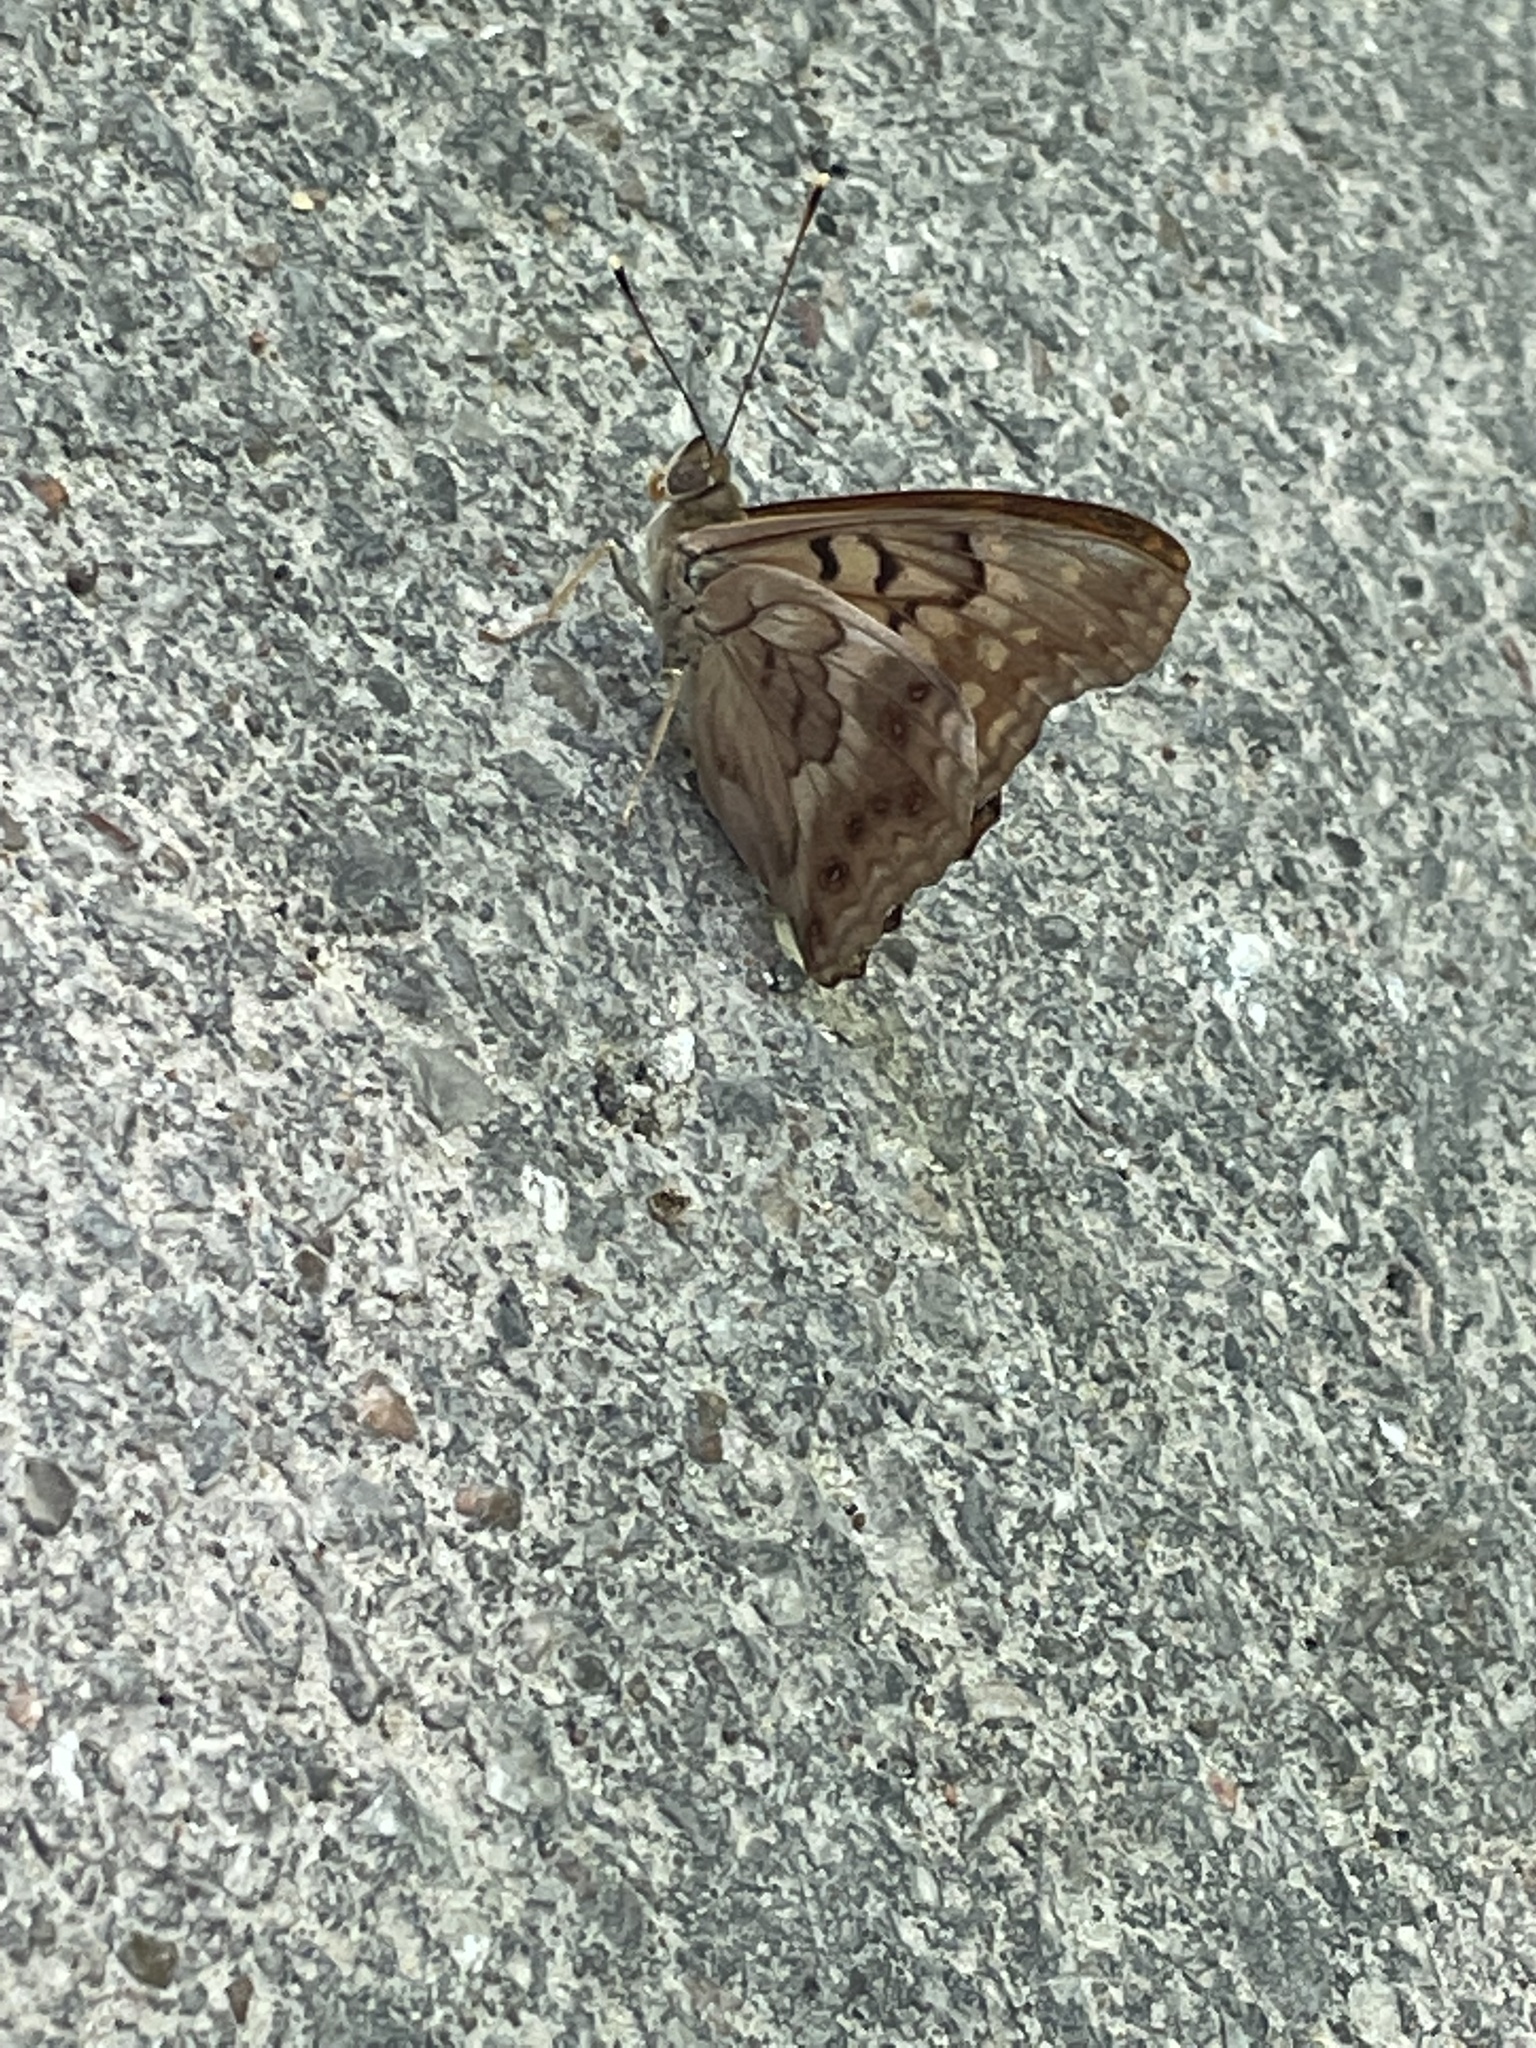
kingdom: Animalia
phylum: Arthropoda
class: Insecta
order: Lepidoptera
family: Nymphalidae
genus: Asterocampa
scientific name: Asterocampa clyton
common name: Tawny emperor
